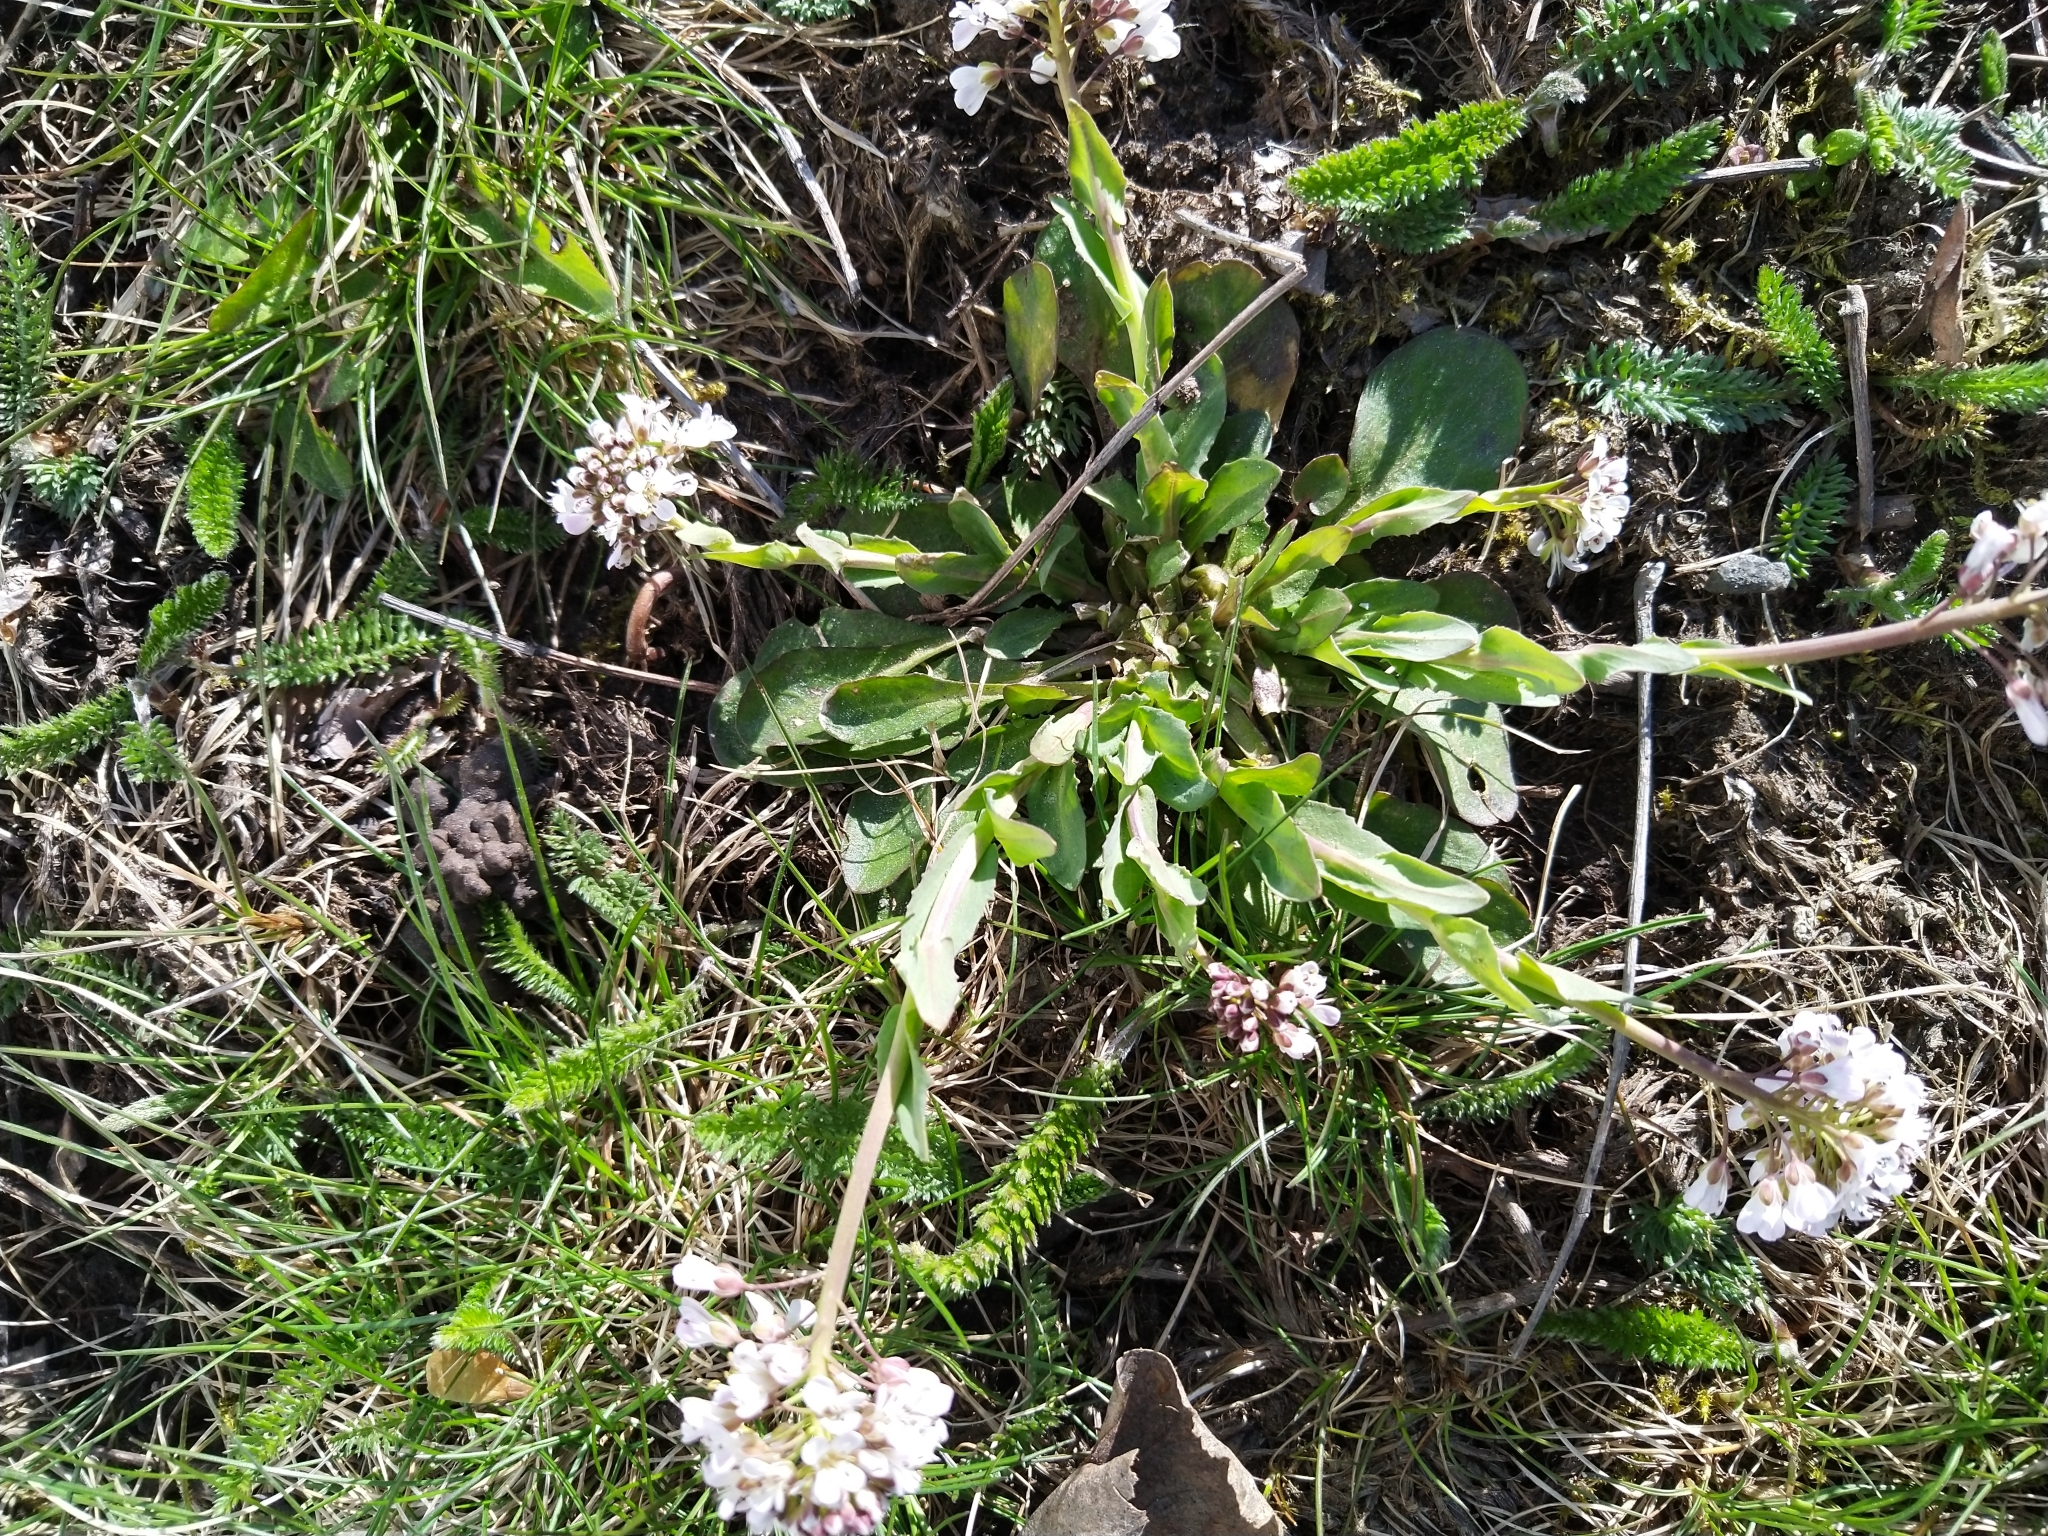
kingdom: Plantae
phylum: Tracheophyta
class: Magnoliopsida
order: Brassicales
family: Brassicaceae
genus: Noccaea
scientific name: Noccaea caerulescens
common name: Alpine pennycress
